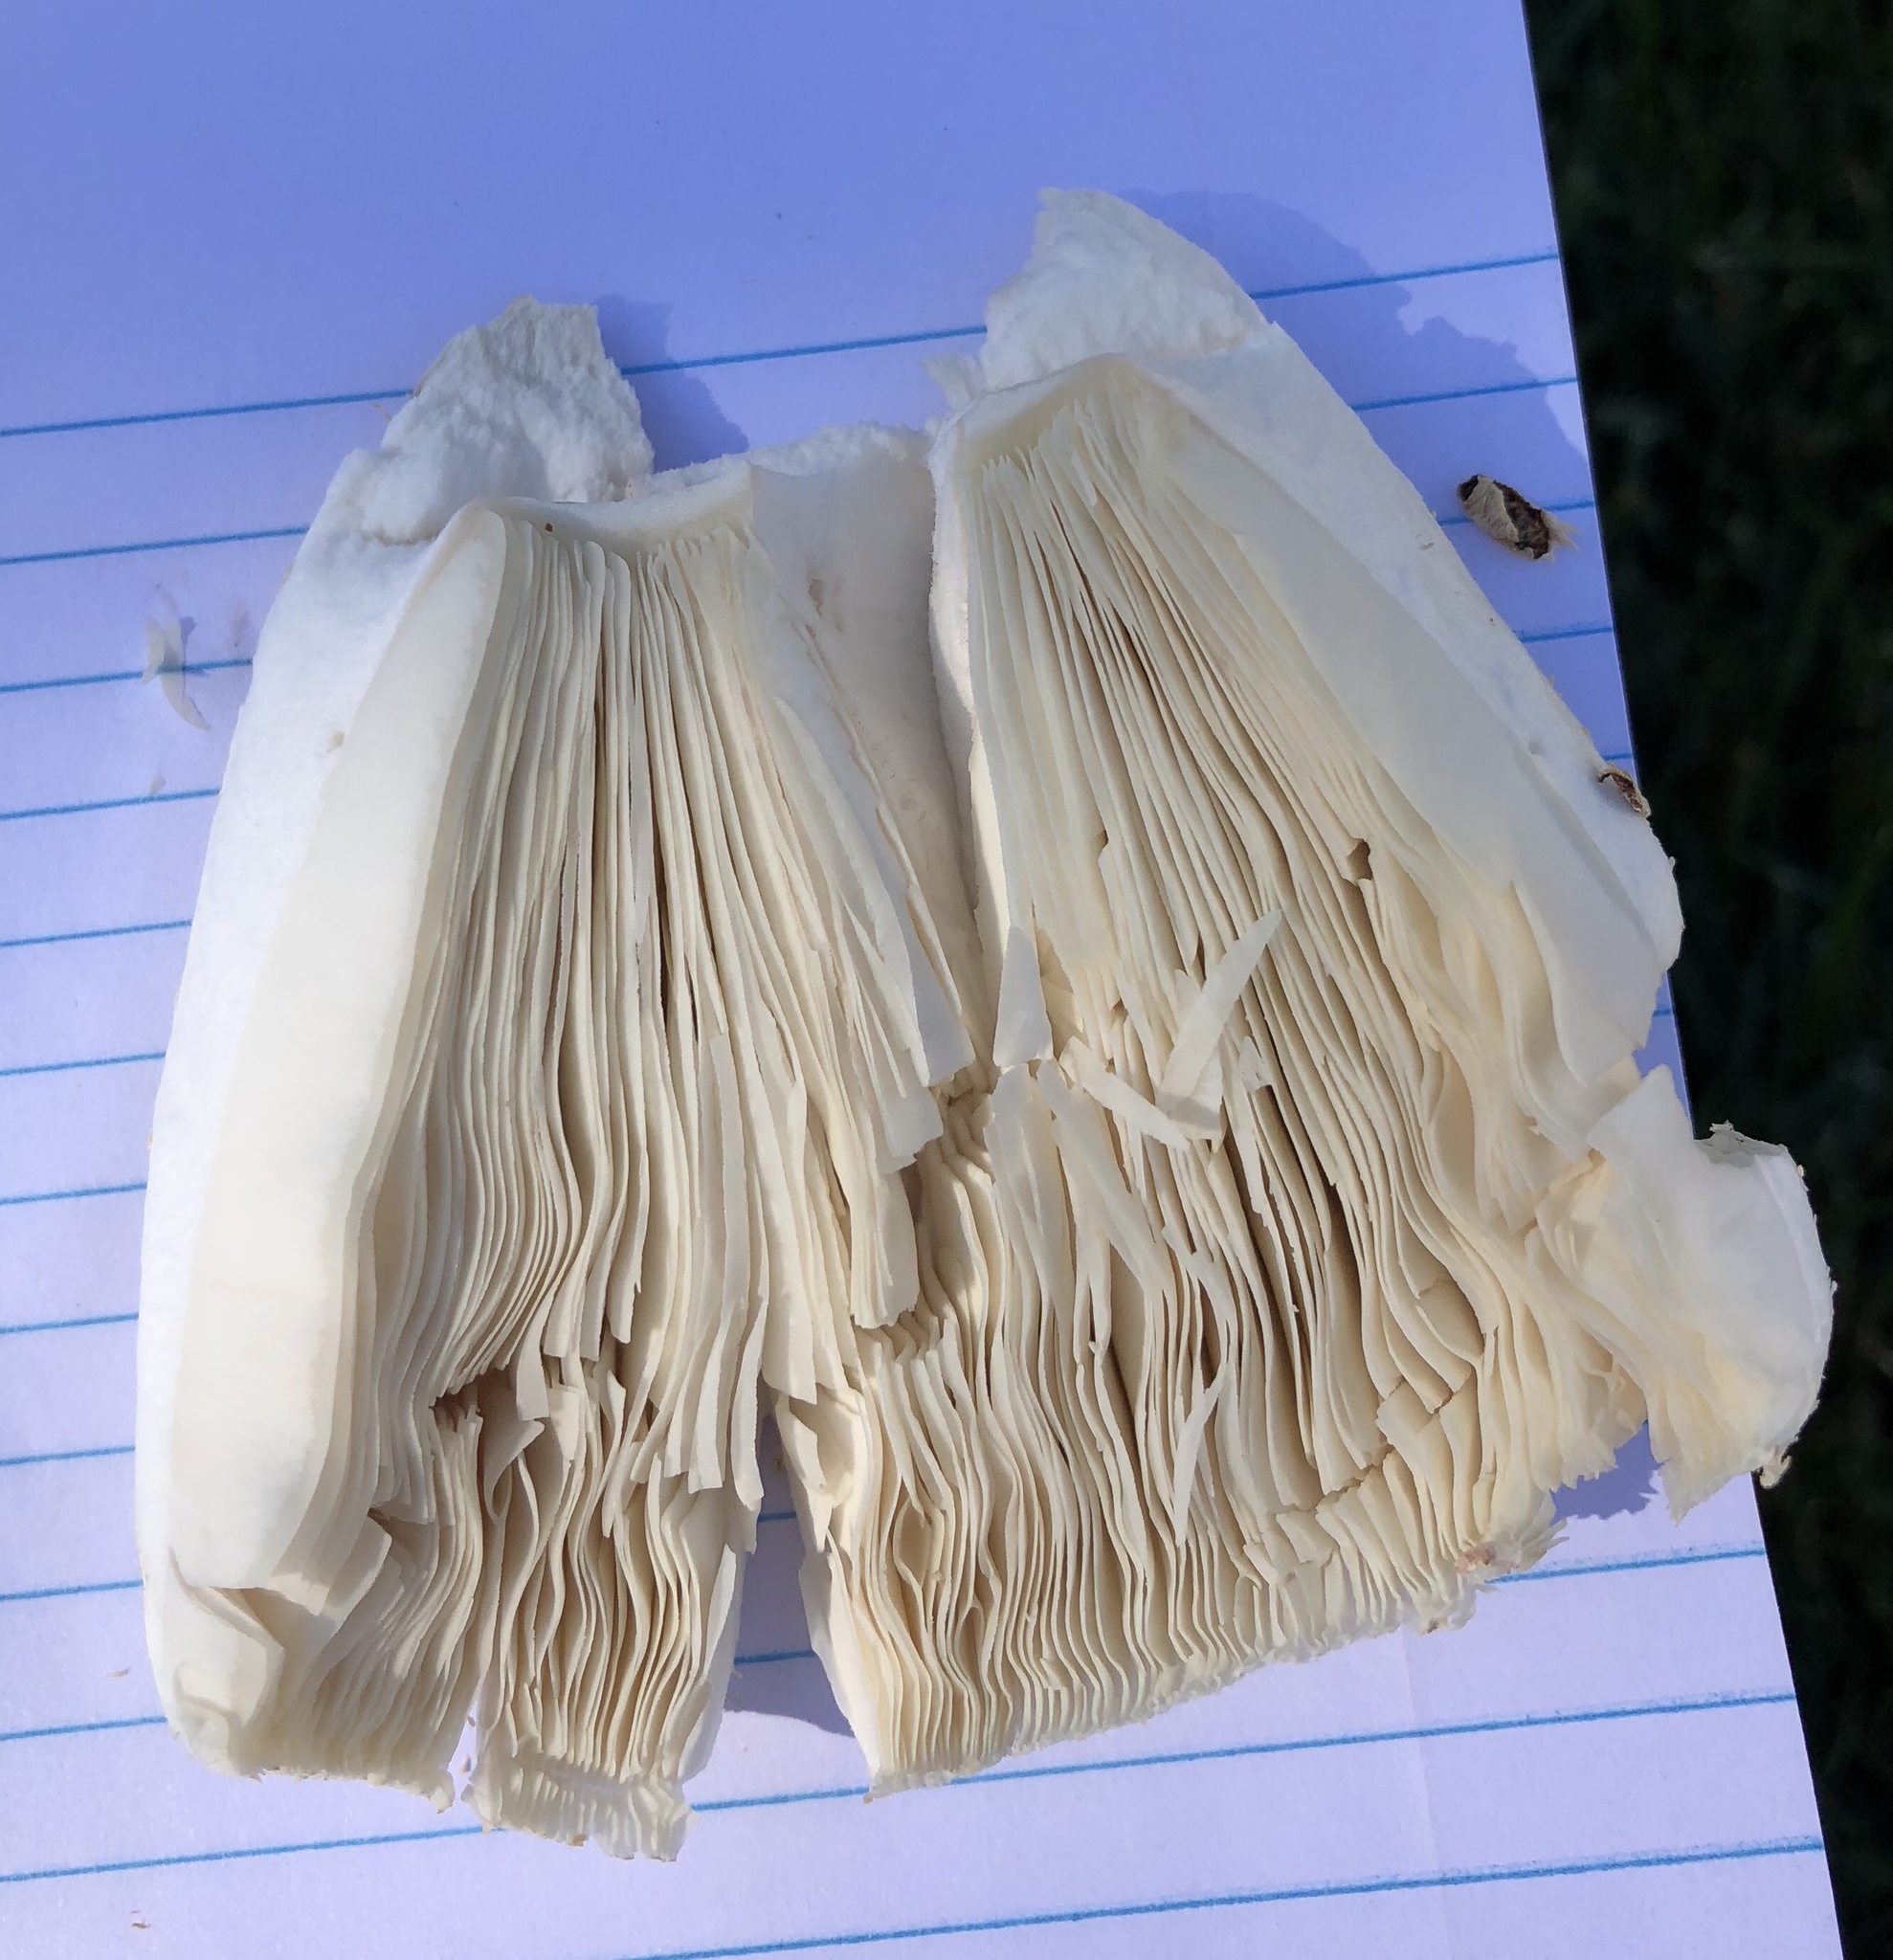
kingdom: Fungi
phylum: Basidiomycota
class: Agaricomycetes
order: Agaricales
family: Agaricaceae
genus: Chlorophyllum
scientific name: Chlorophyllum molybdites
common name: False parasol
